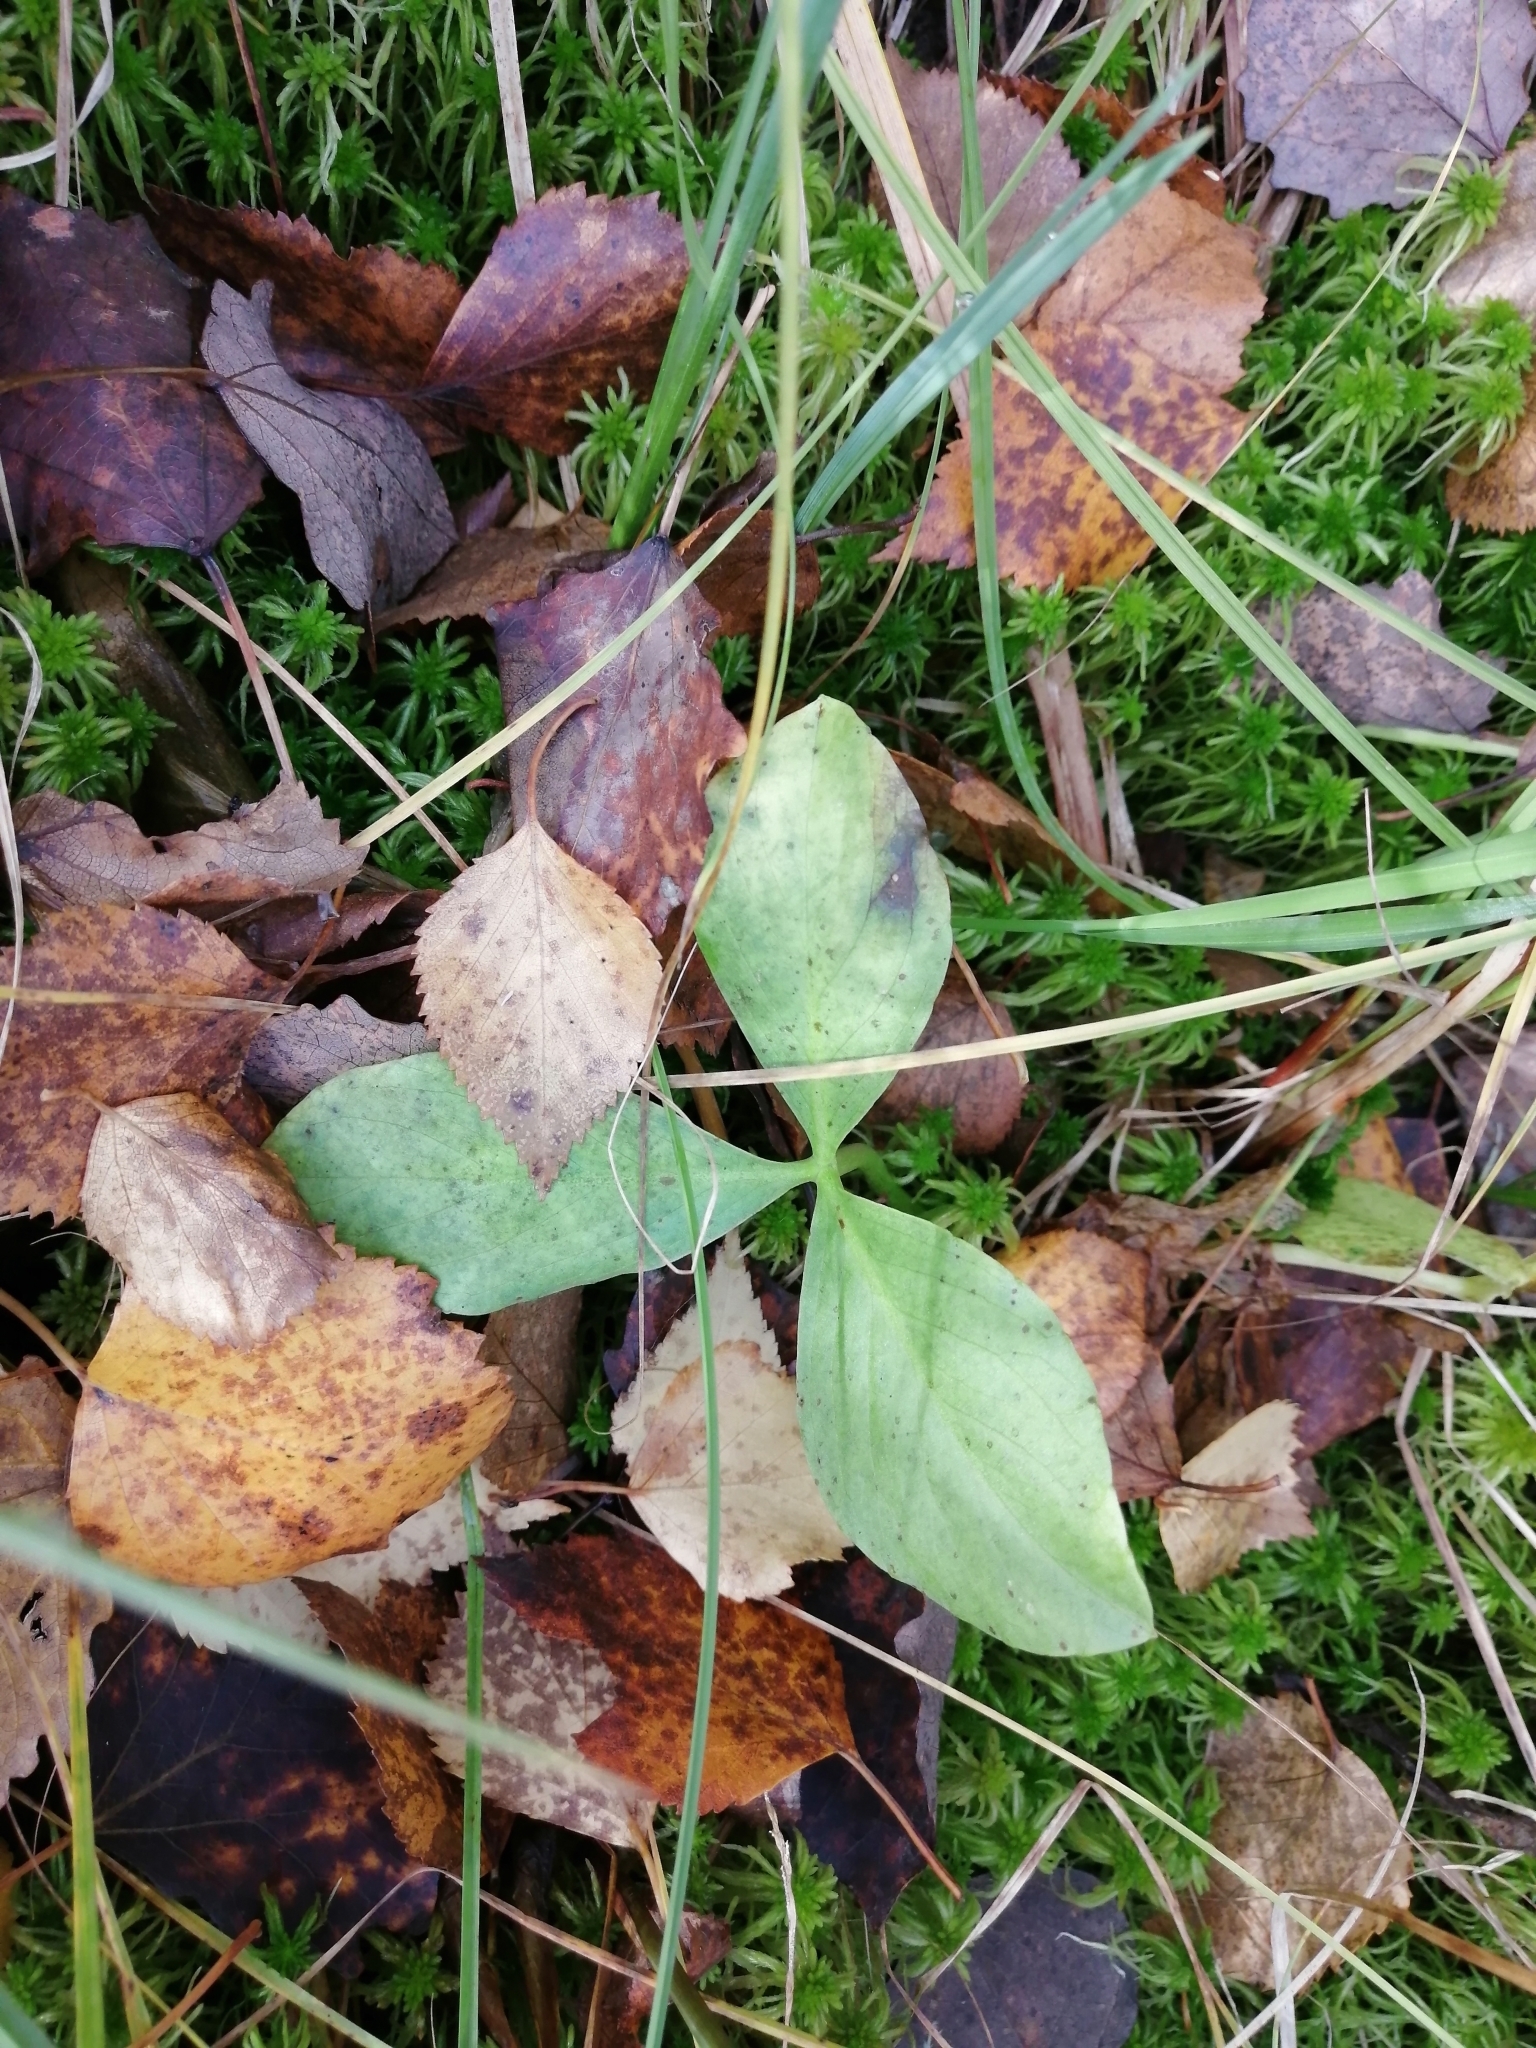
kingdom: Plantae
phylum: Tracheophyta
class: Magnoliopsida
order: Asterales
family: Menyanthaceae
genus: Menyanthes
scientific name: Menyanthes trifoliata
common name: Bogbean
